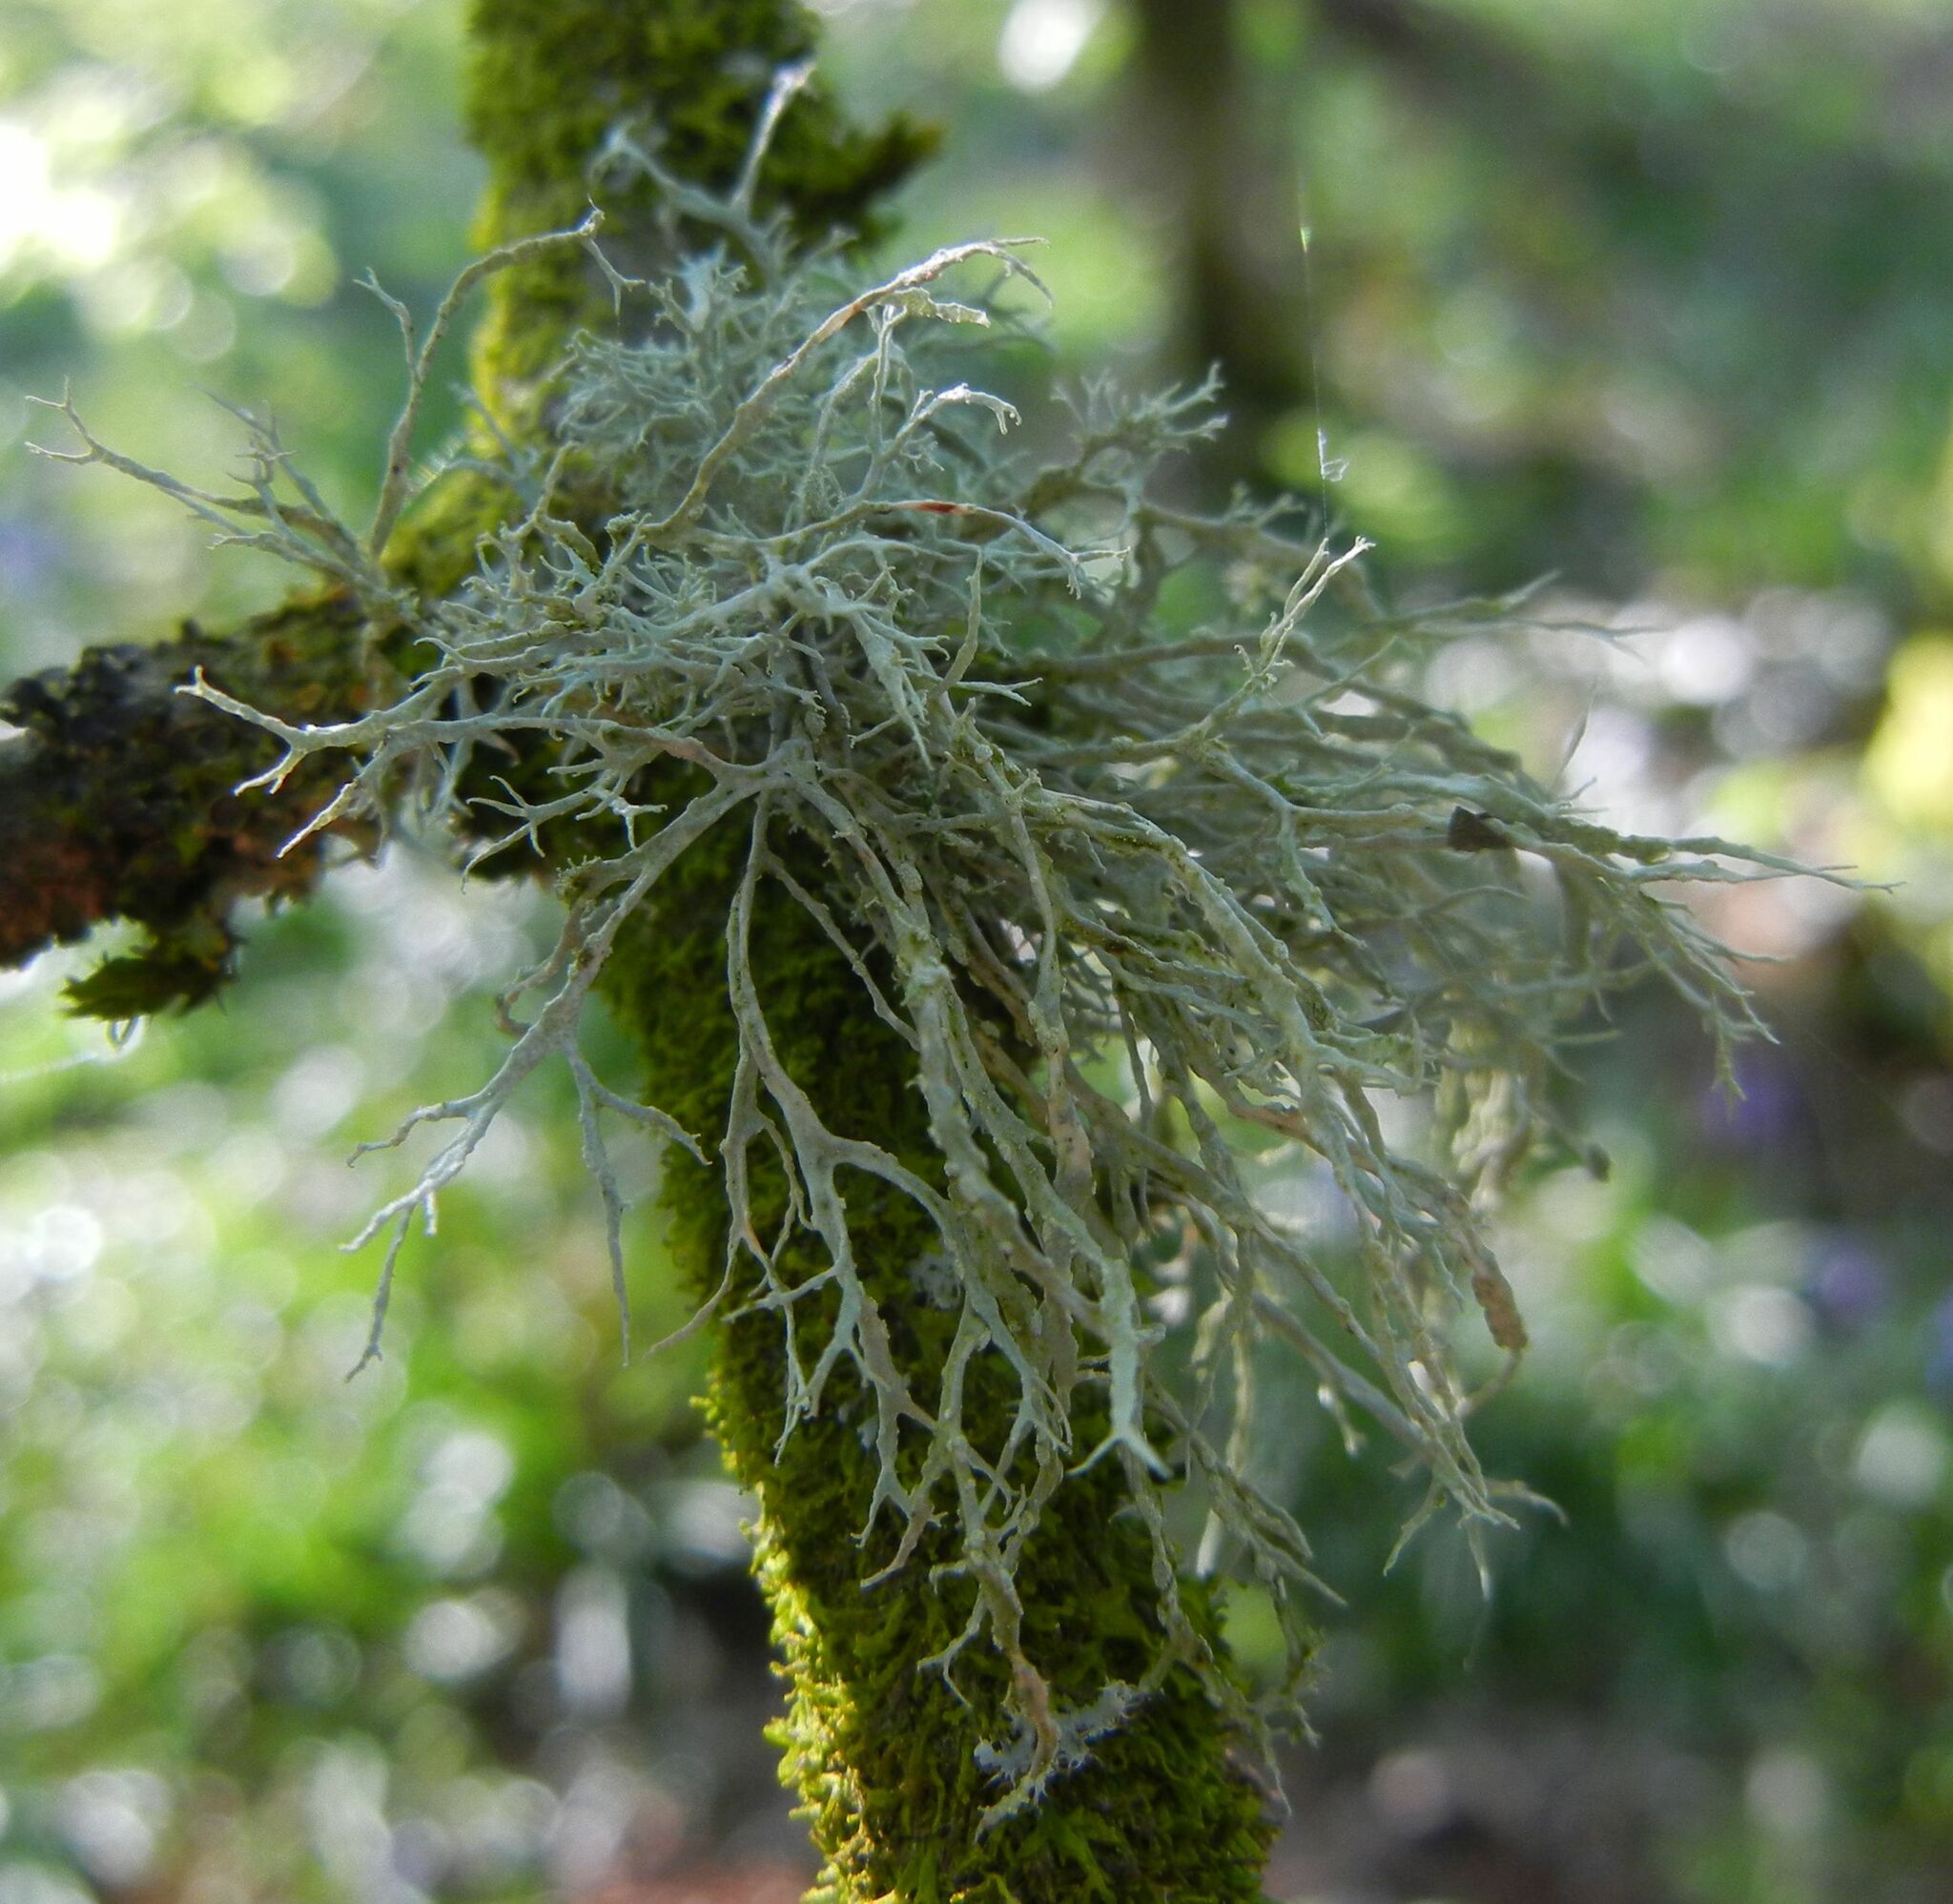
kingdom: Fungi
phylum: Ascomycota
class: Lecanoromycetes
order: Lecanorales
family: Ramalinaceae
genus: Ramalina
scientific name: Ramalina farinacea
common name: Farinose cartilage lichen
